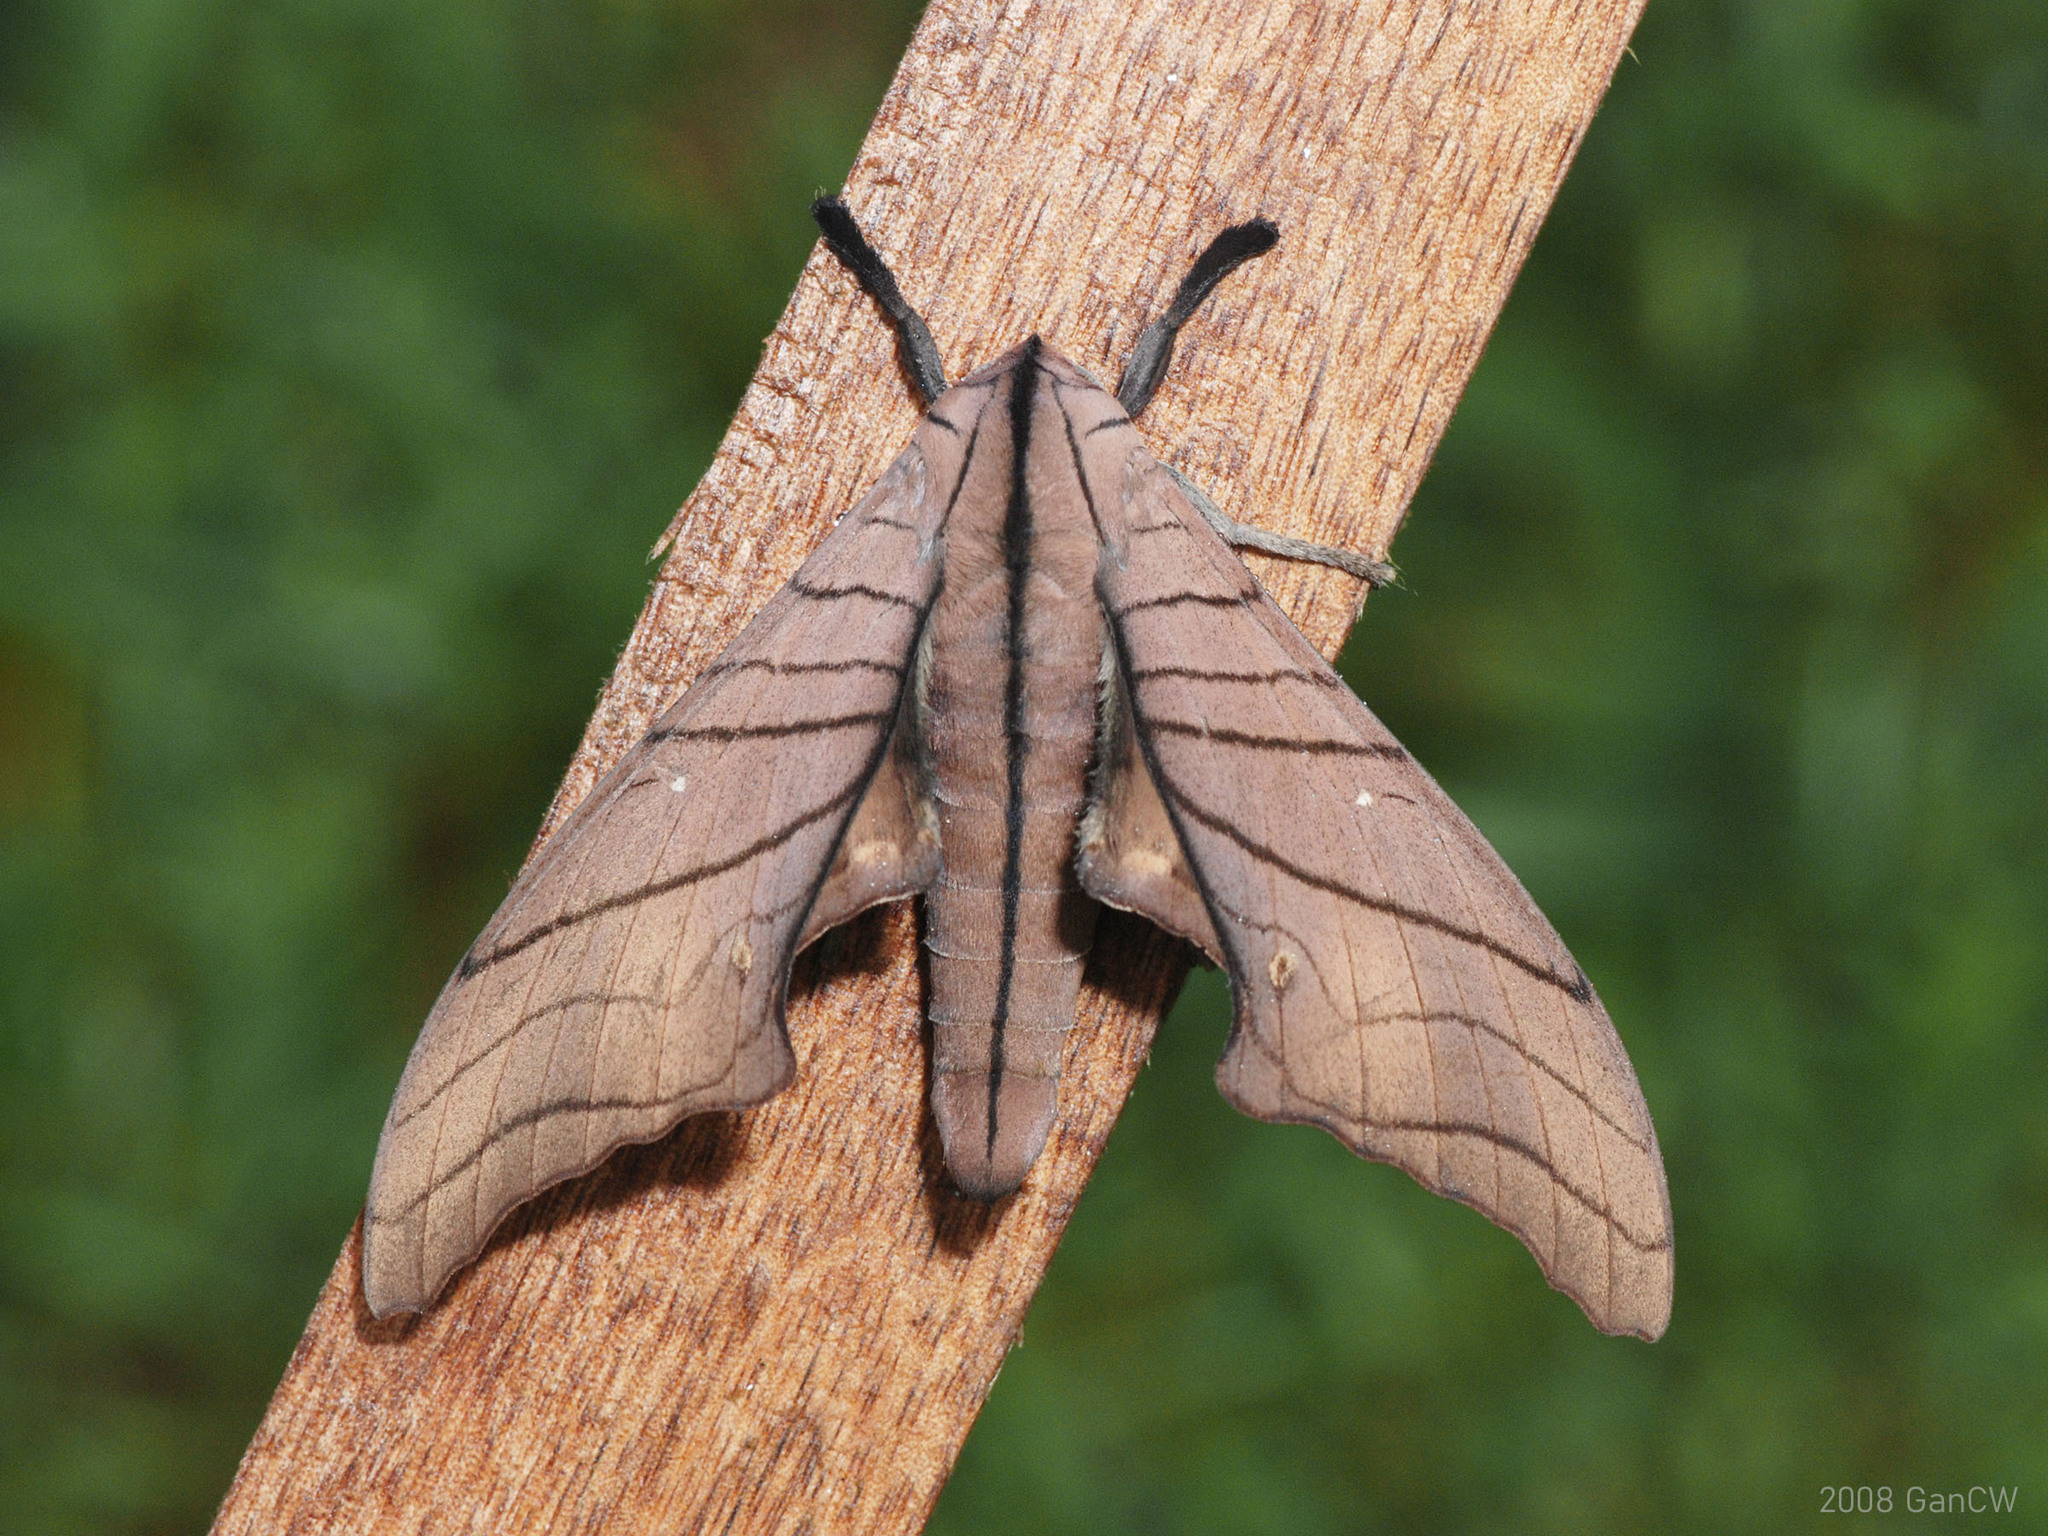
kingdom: Animalia
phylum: Arthropoda
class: Insecta
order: Lepidoptera
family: Sphingidae
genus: Marumba
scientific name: Marumba cristata
